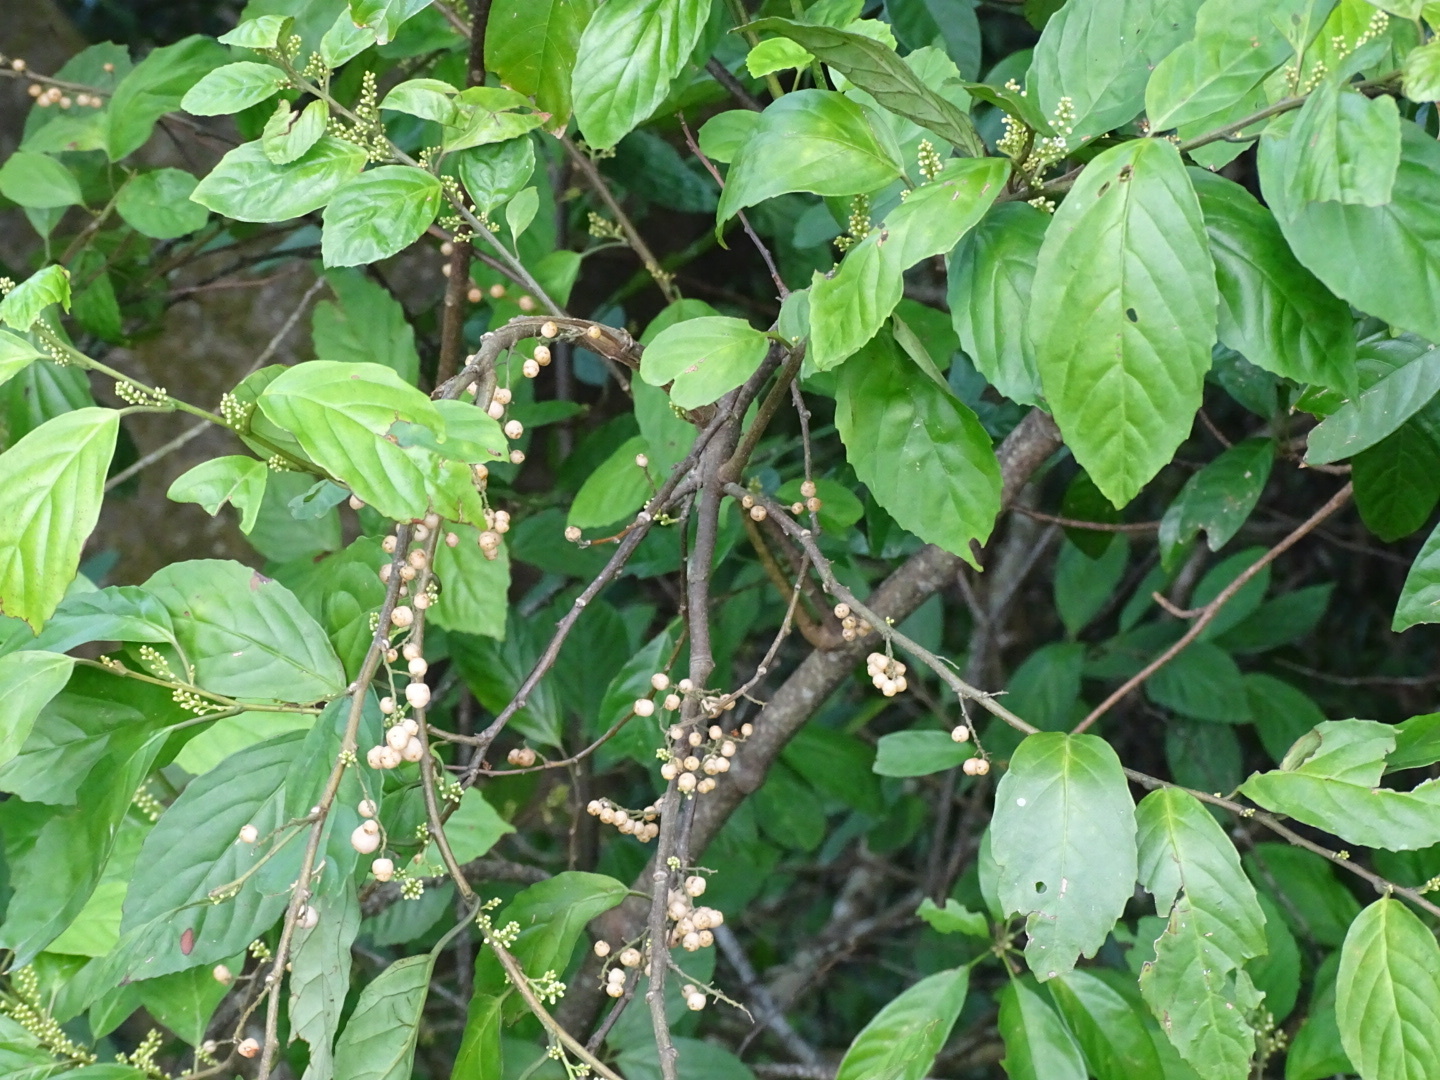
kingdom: Plantae
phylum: Tracheophyta
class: Magnoliopsida
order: Ericales
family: Primulaceae
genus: Maesa
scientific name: Maesa perlaria
